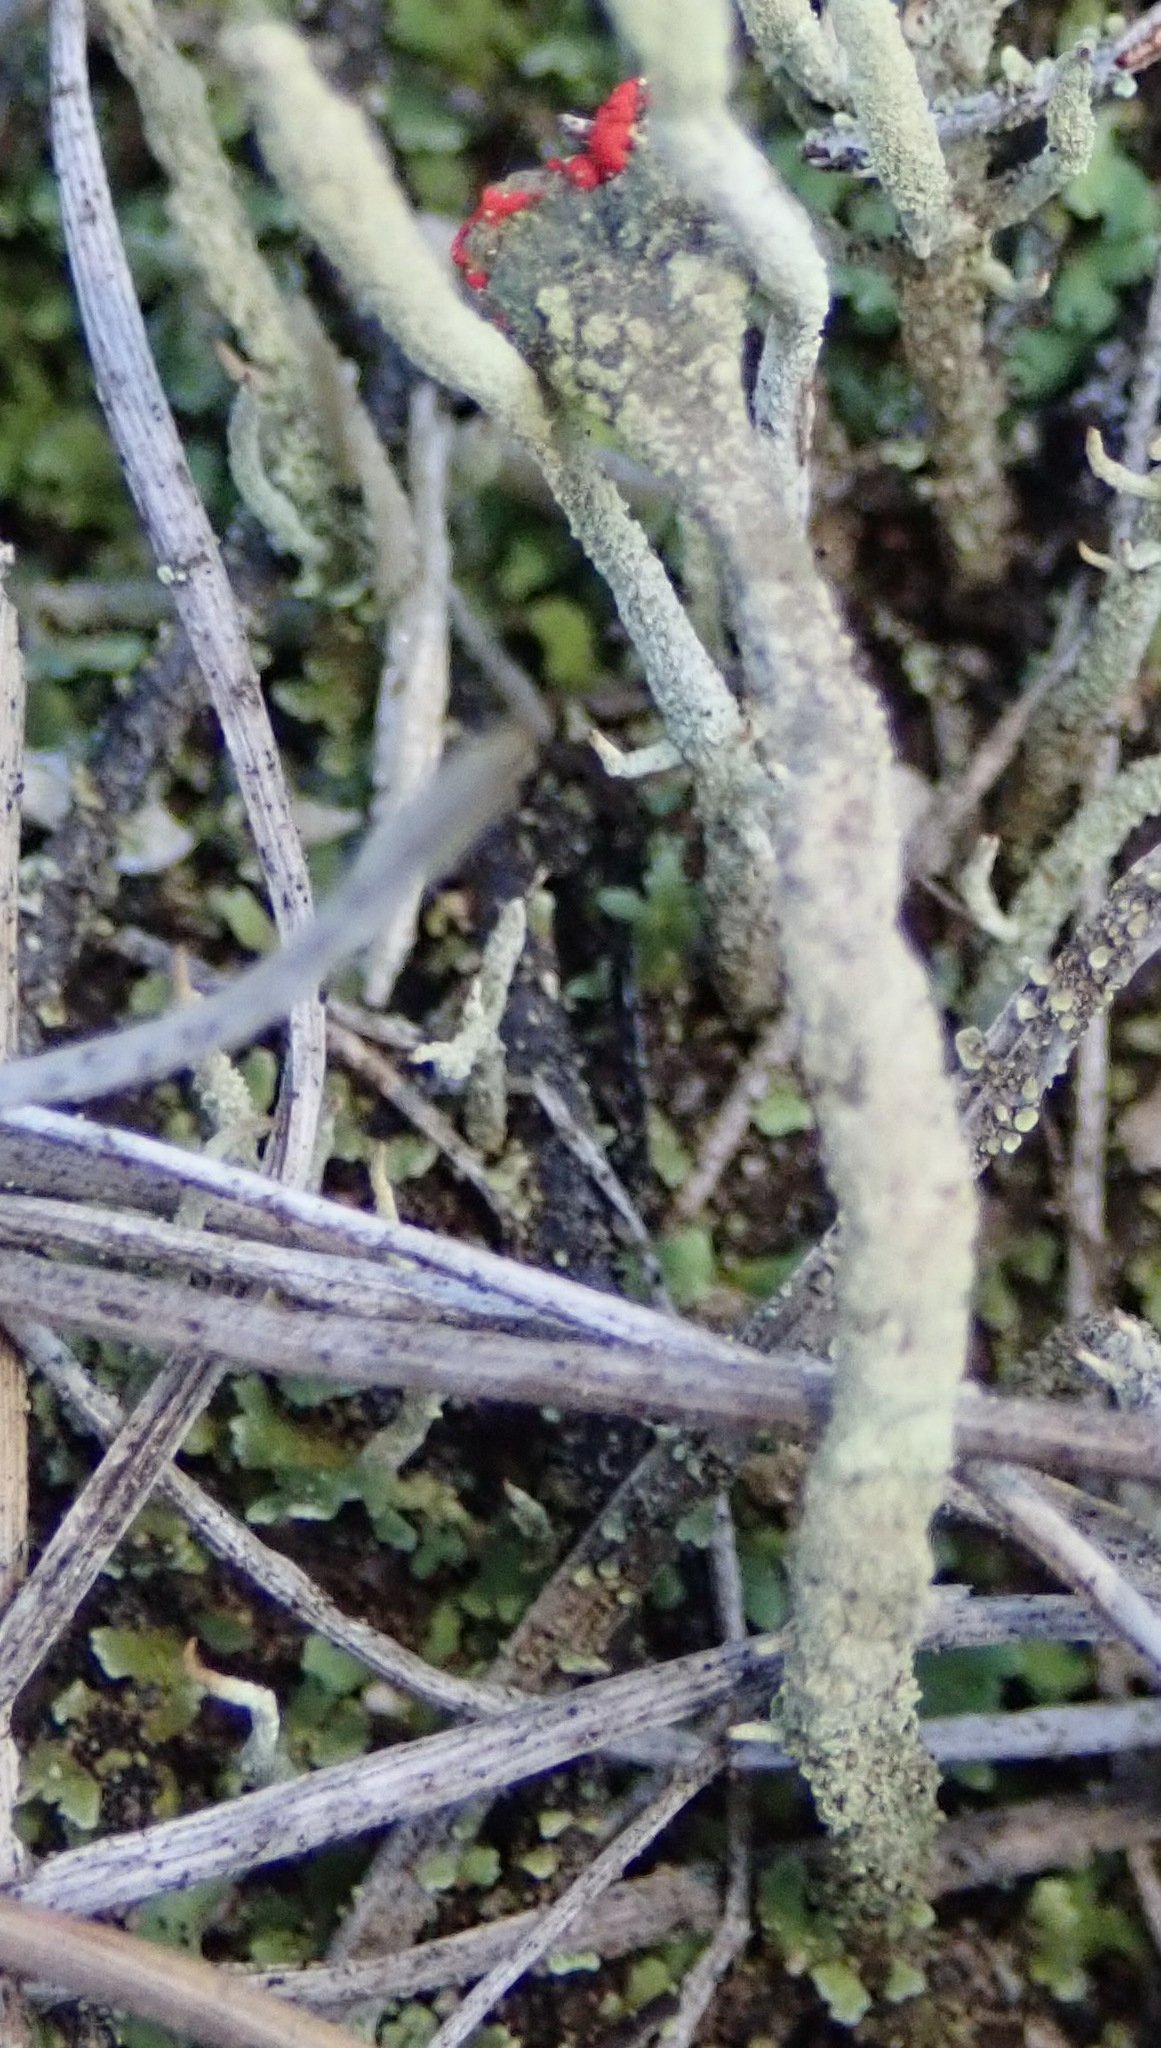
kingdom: Fungi
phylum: Ascomycota
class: Lecanoromycetes
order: Lecanorales
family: Cladoniaceae
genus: Cladonia
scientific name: Cladonia floerkeana
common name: Gritty british soldiers lichen
